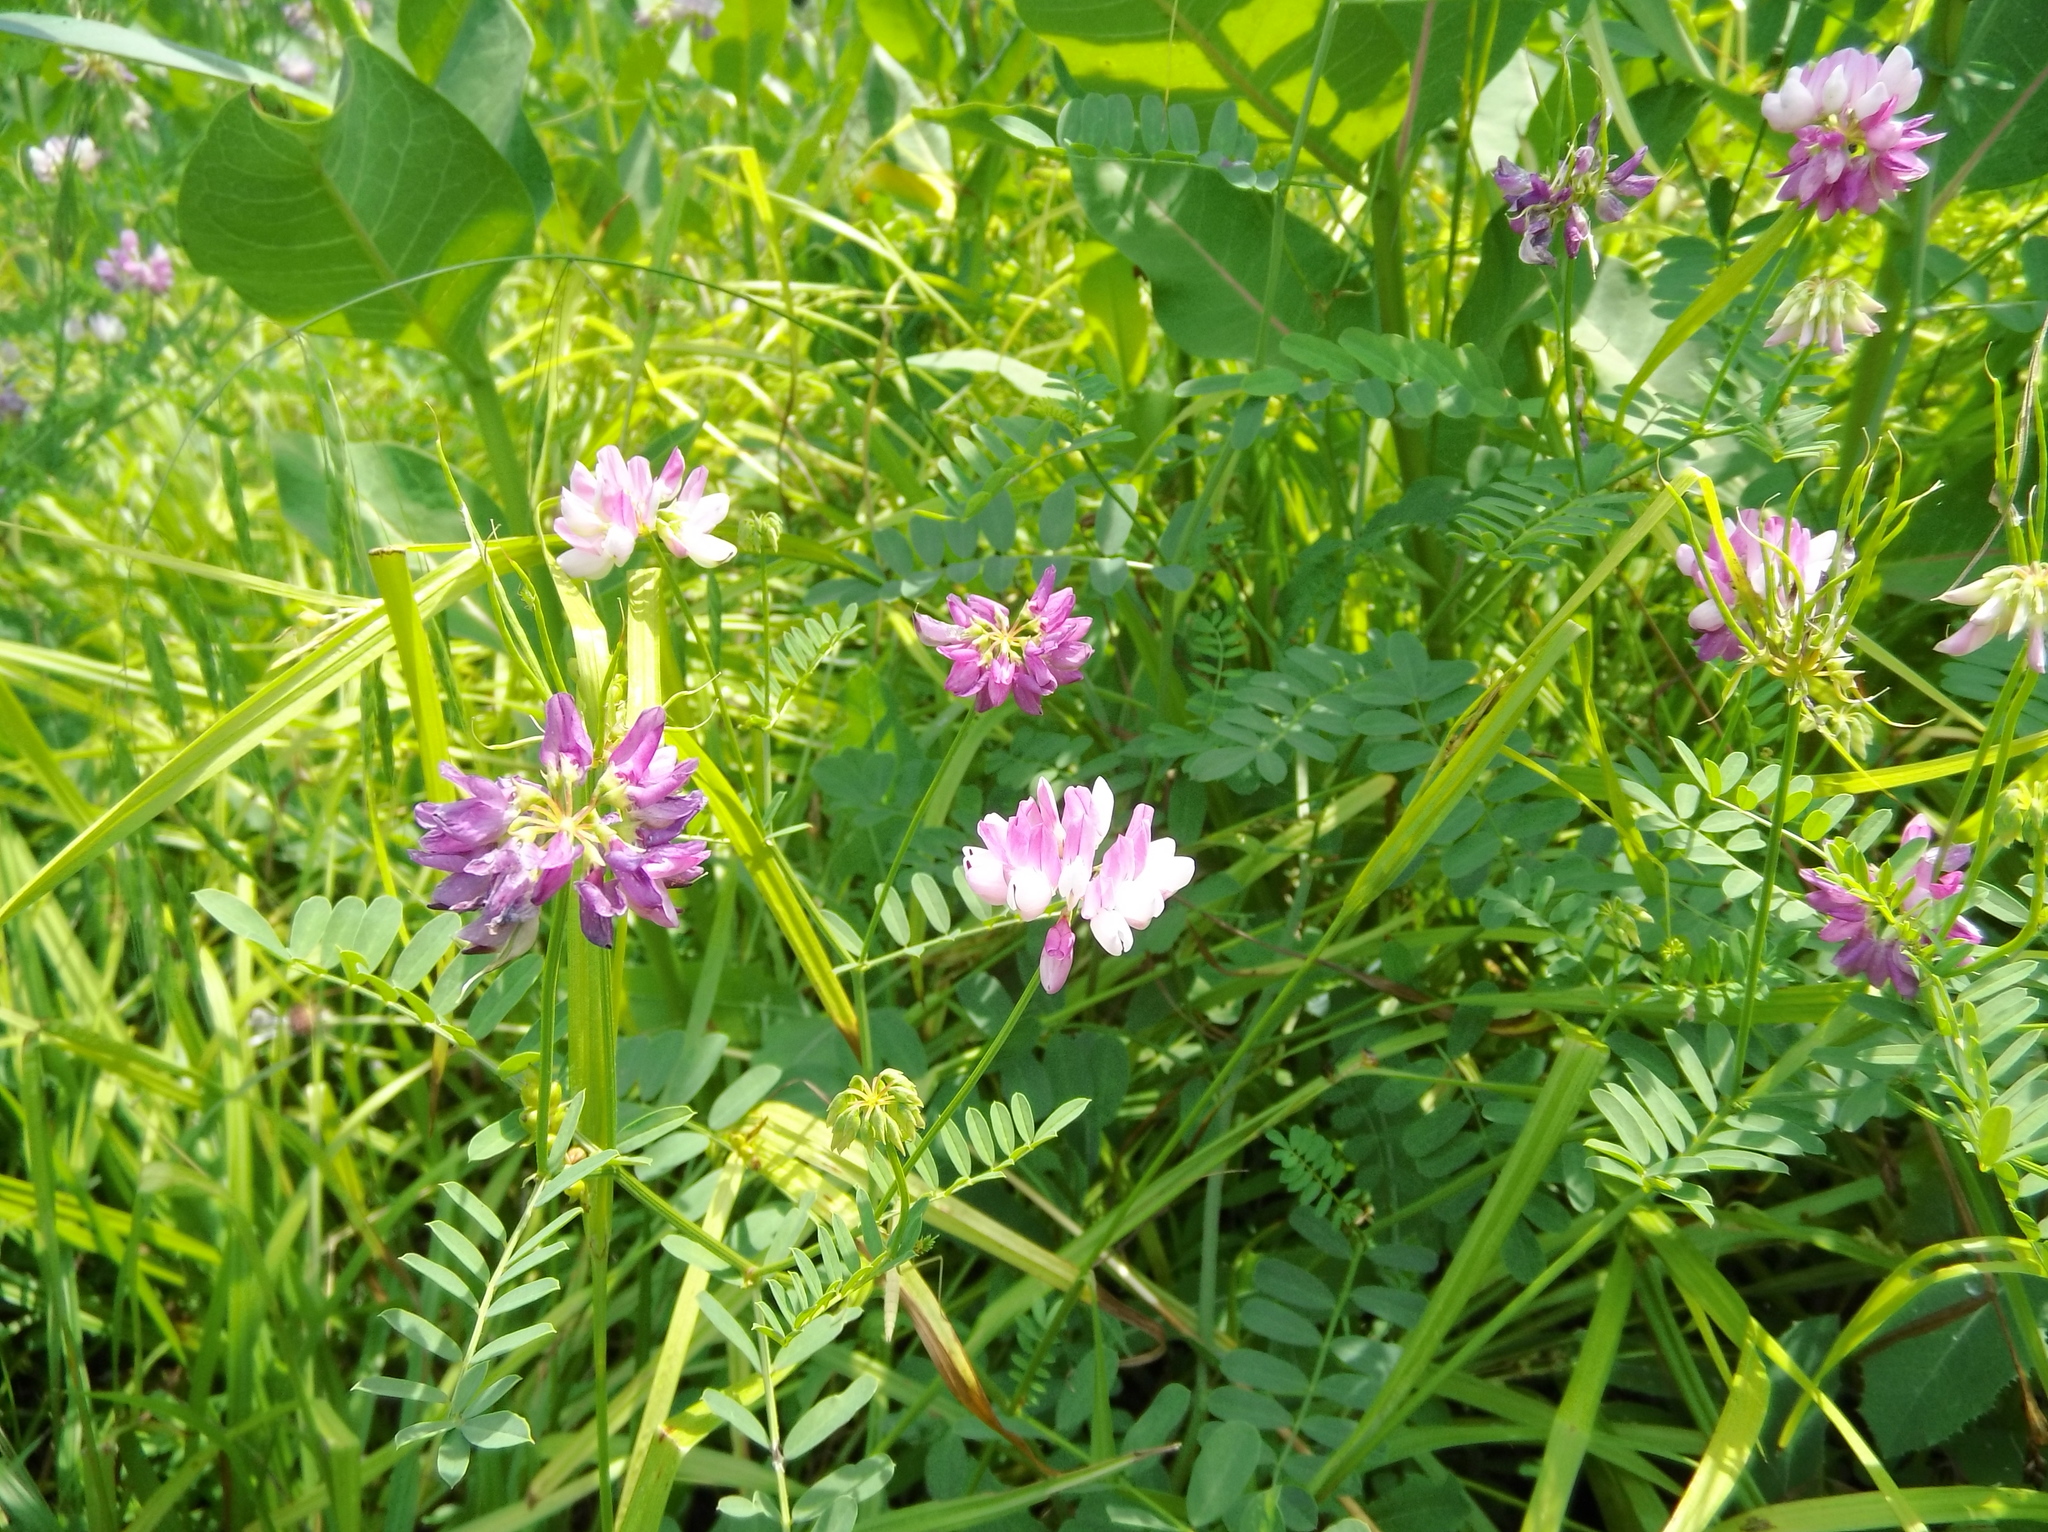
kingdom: Plantae
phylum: Tracheophyta
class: Magnoliopsida
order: Fabales
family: Fabaceae
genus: Coronilla
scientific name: Coronilla varia
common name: Crownvetch
